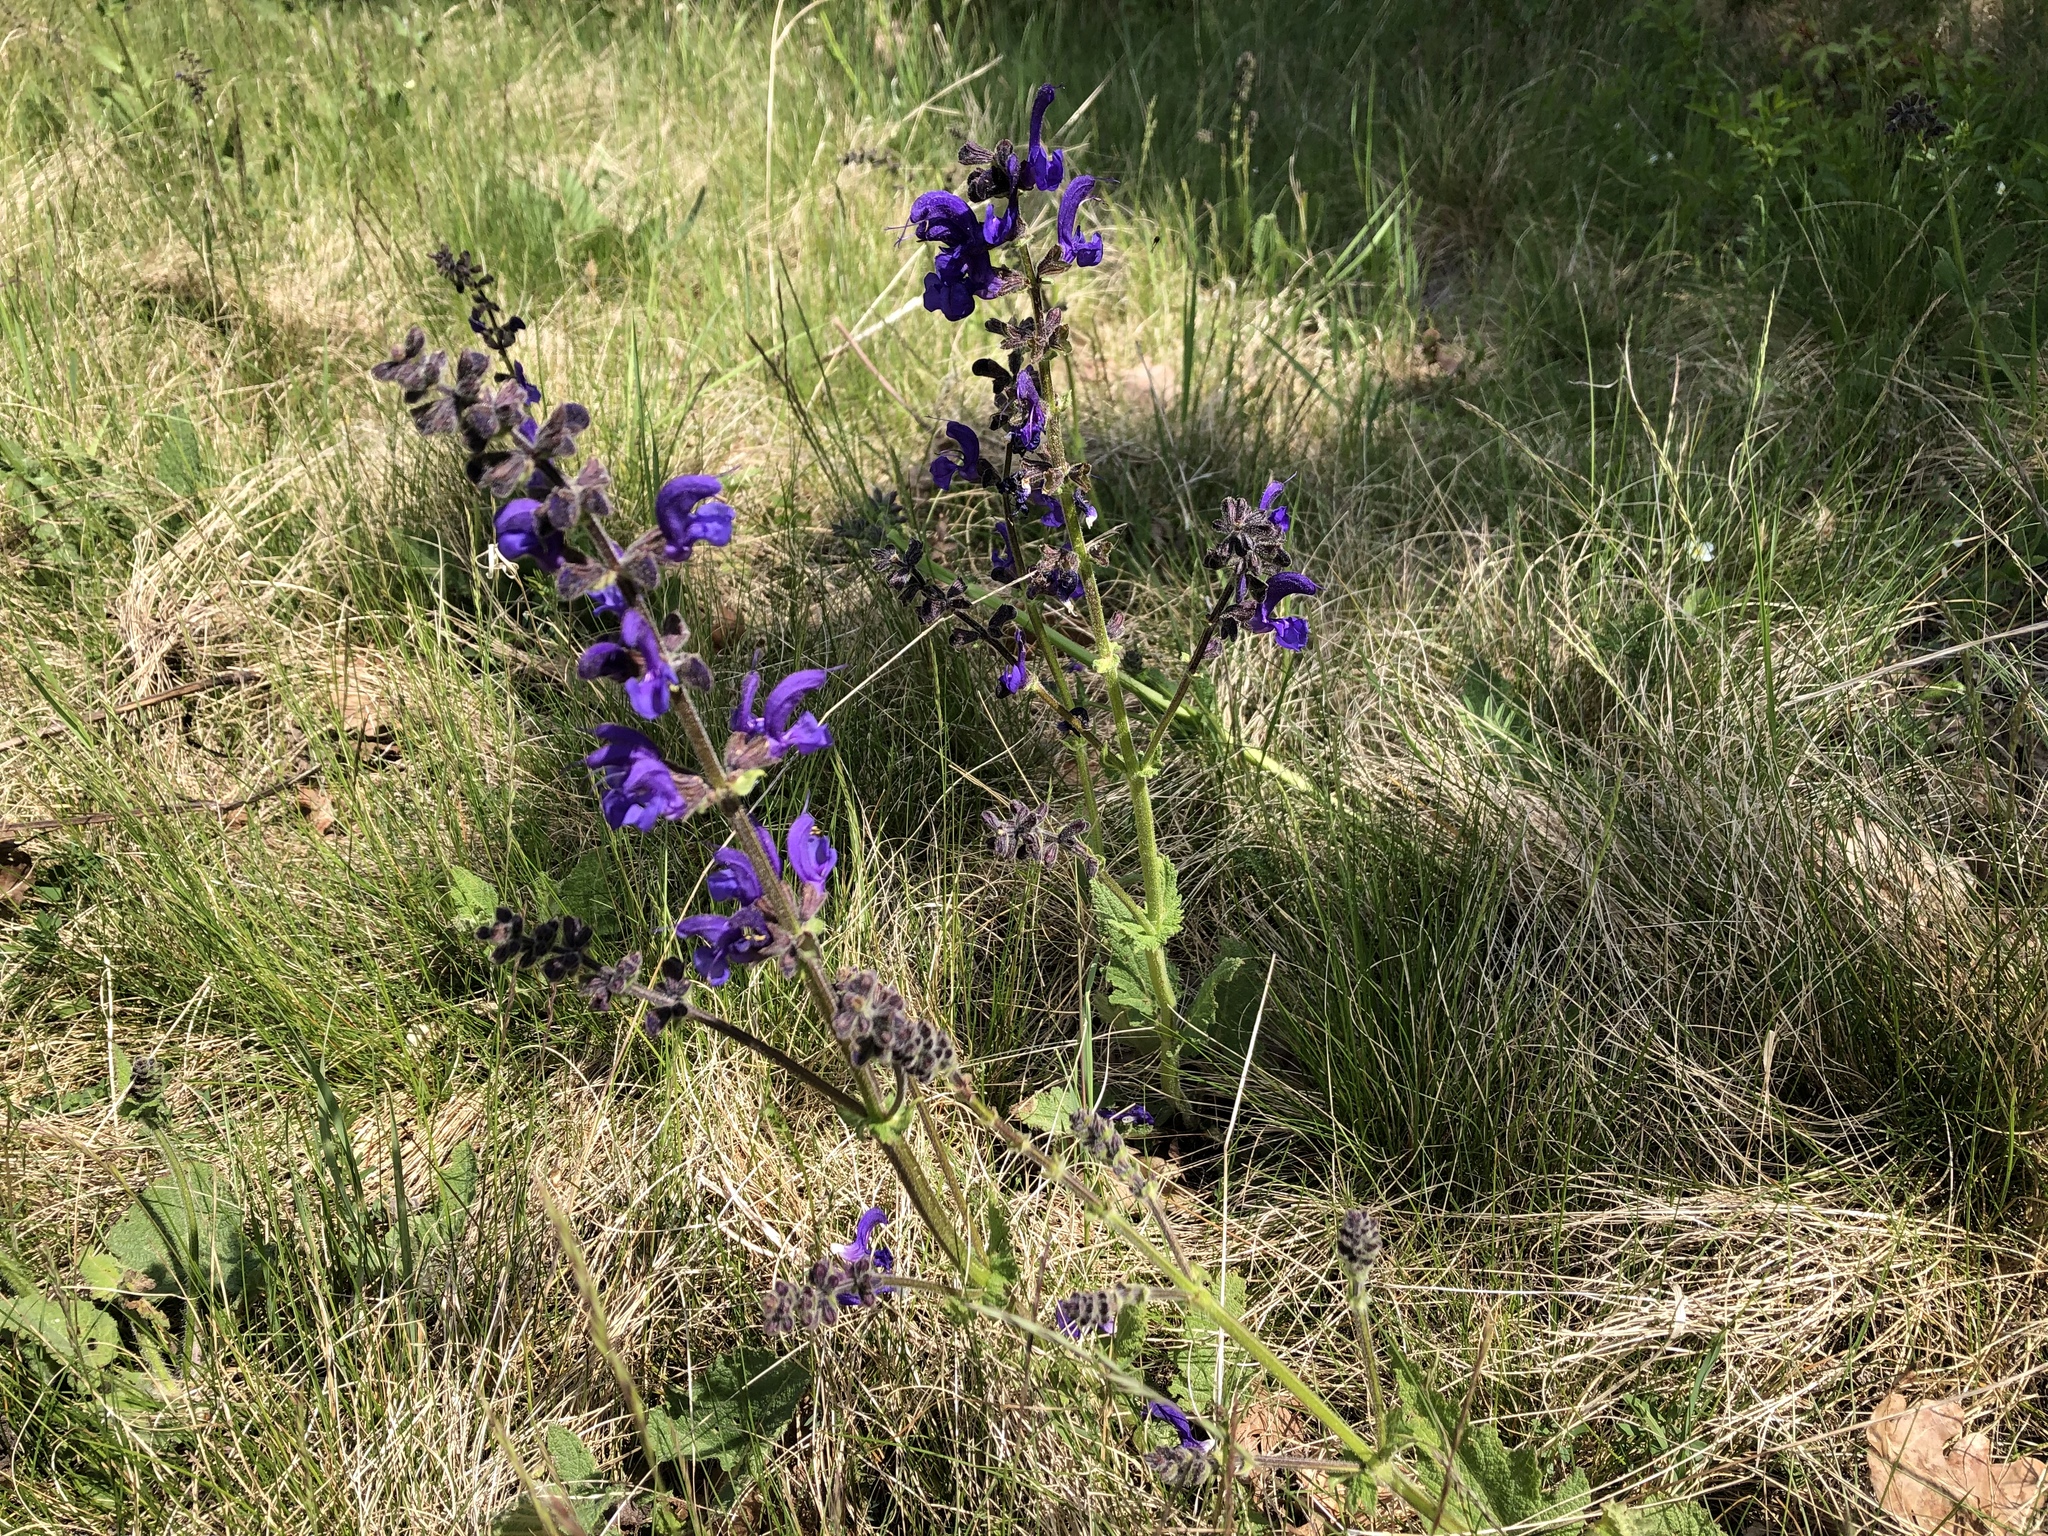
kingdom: Plantae
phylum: Tracheophyta
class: Magnoliopsida
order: Lamiales
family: Lamiaceae
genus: Salvia
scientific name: Salvia pratensis
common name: Meadow sage
